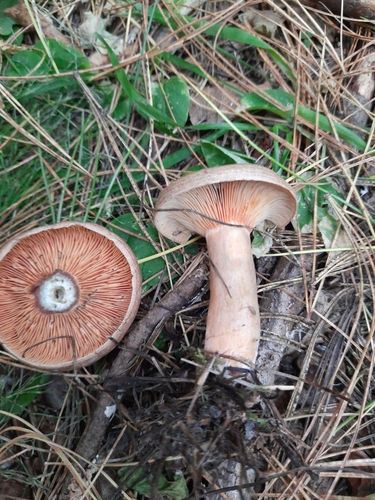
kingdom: Fungi
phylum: Basidiomycota
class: Agaricomycetes
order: Russulales
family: Russulaceae
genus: Lactarius
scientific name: Lactarius deterrimus
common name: False saffron milkcap
